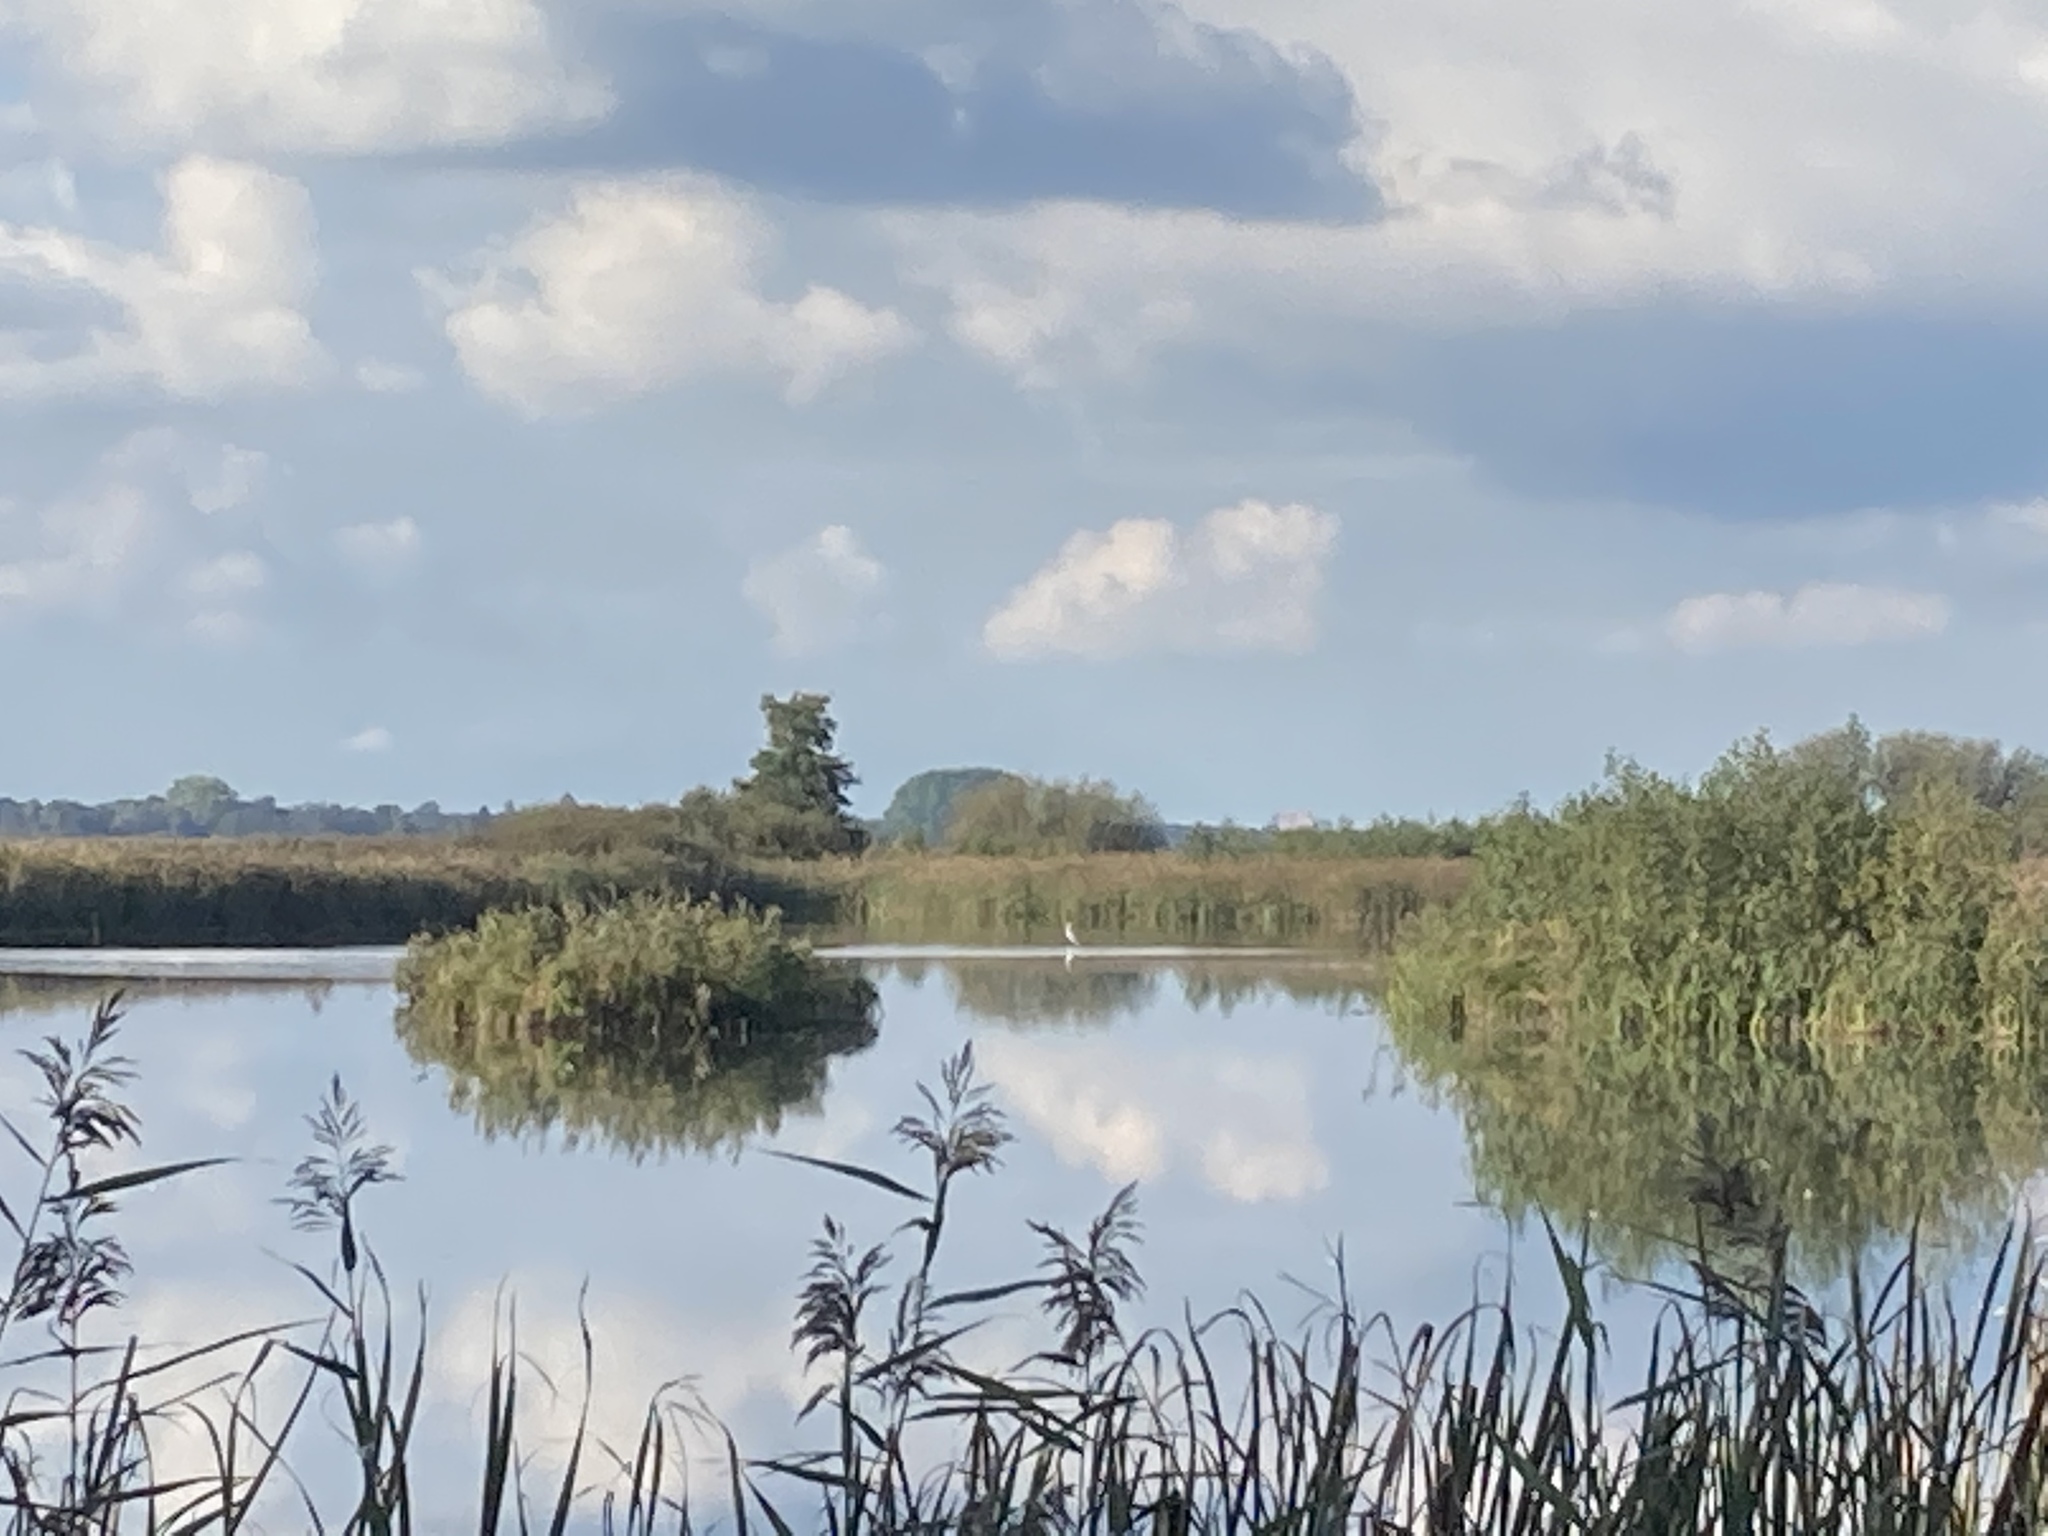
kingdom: Animalia
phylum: Chordata
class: Aves
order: Pelecaniformes
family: Ardeidae
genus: Ardea
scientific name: Ardea alba
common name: Great egret
